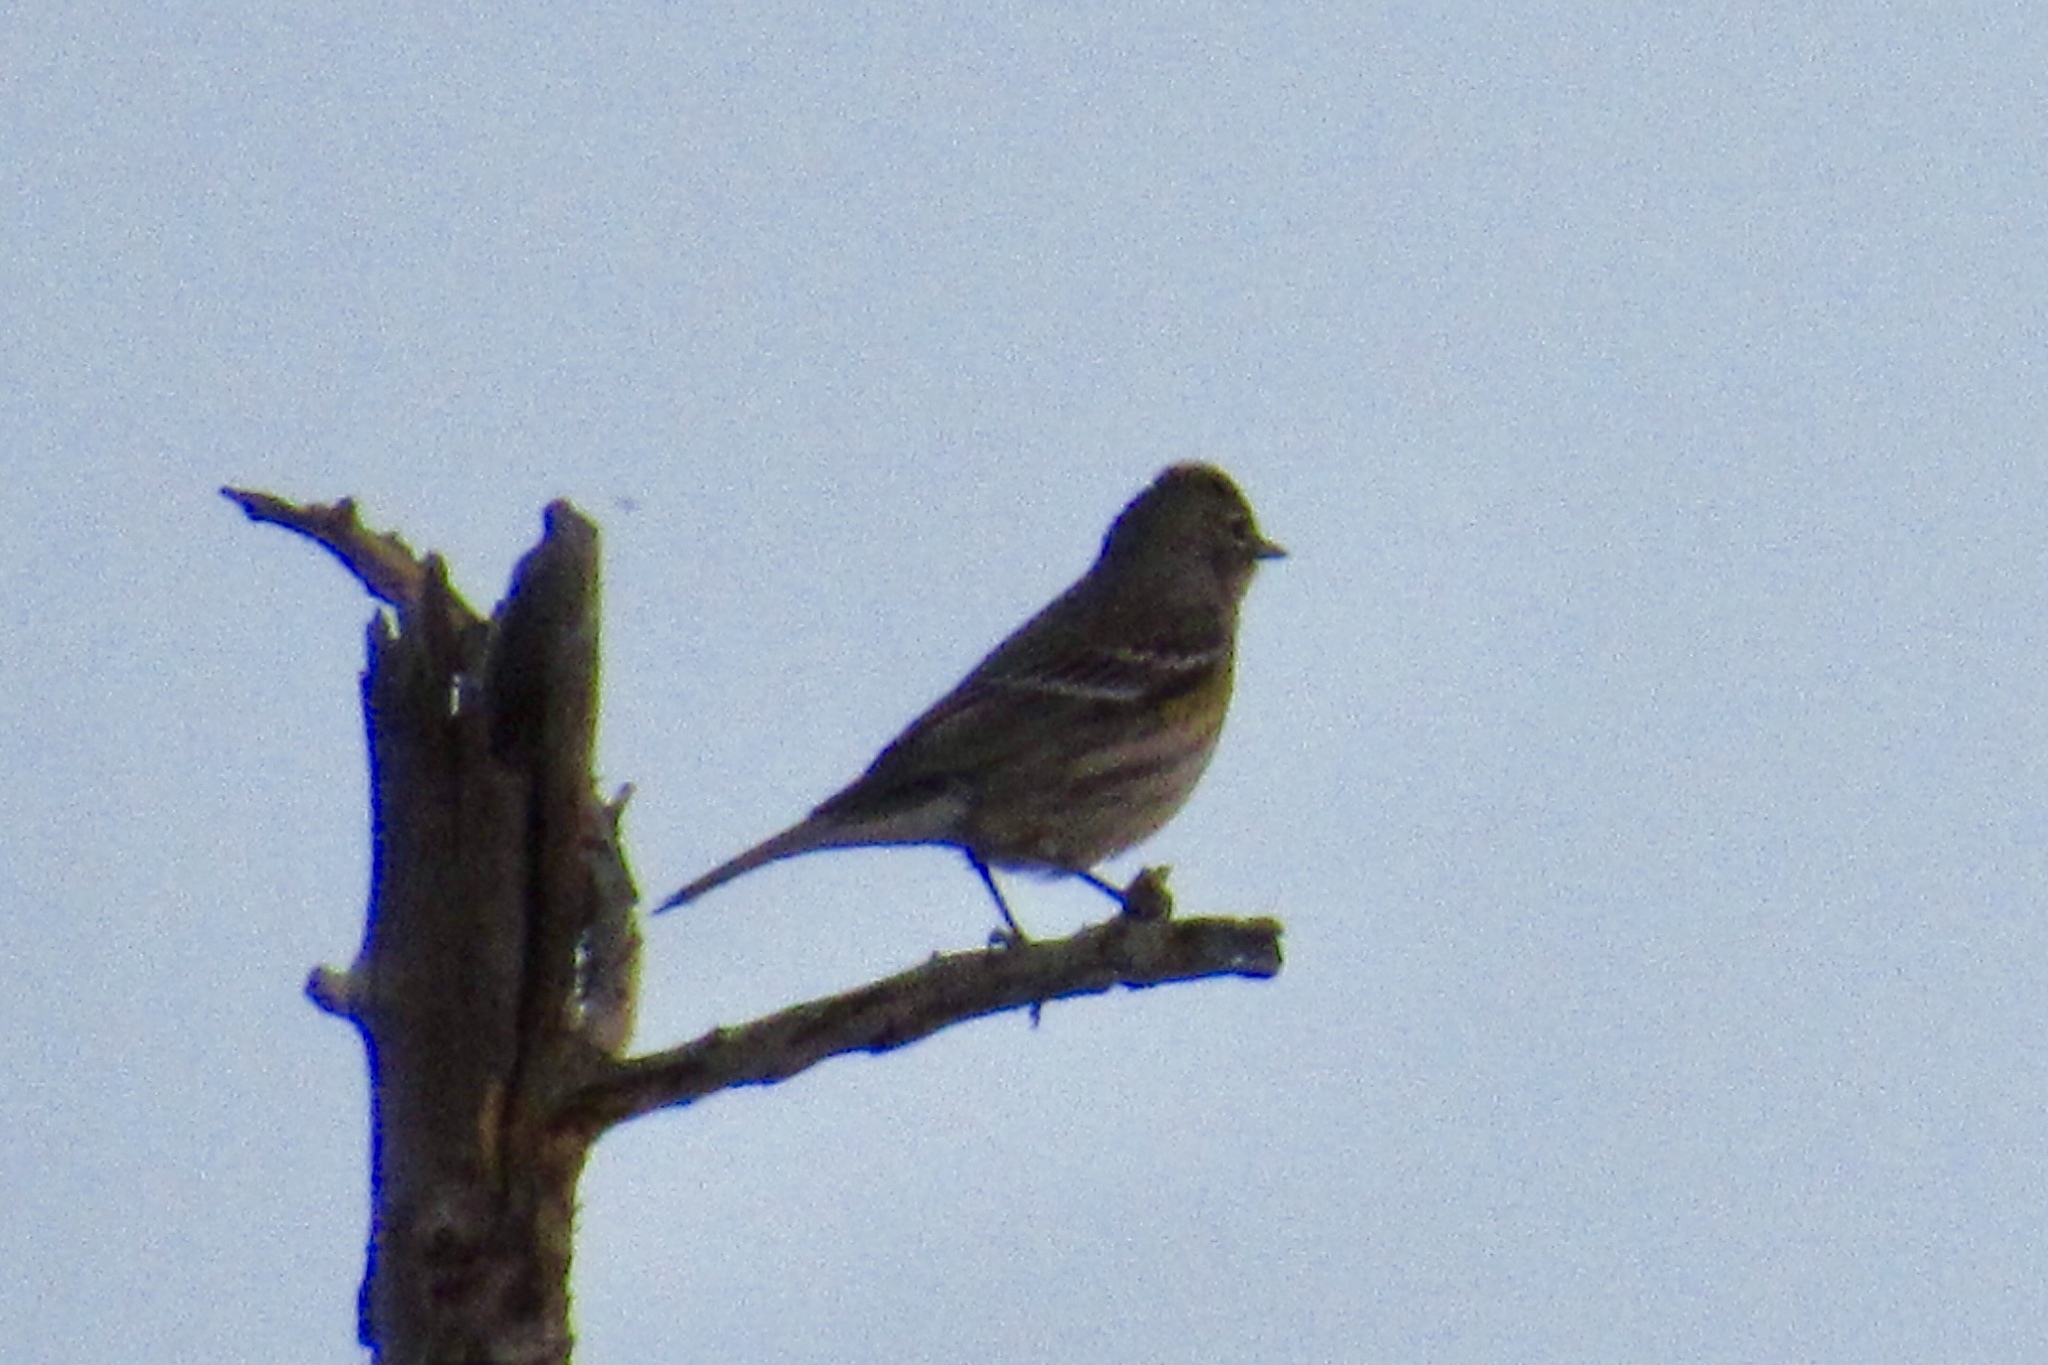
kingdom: Animalia
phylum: Chordata
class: Aves
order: Passeriformes
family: Parulidae
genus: Setophaga
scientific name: Setophaga coronata
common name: Myrtle warbler
